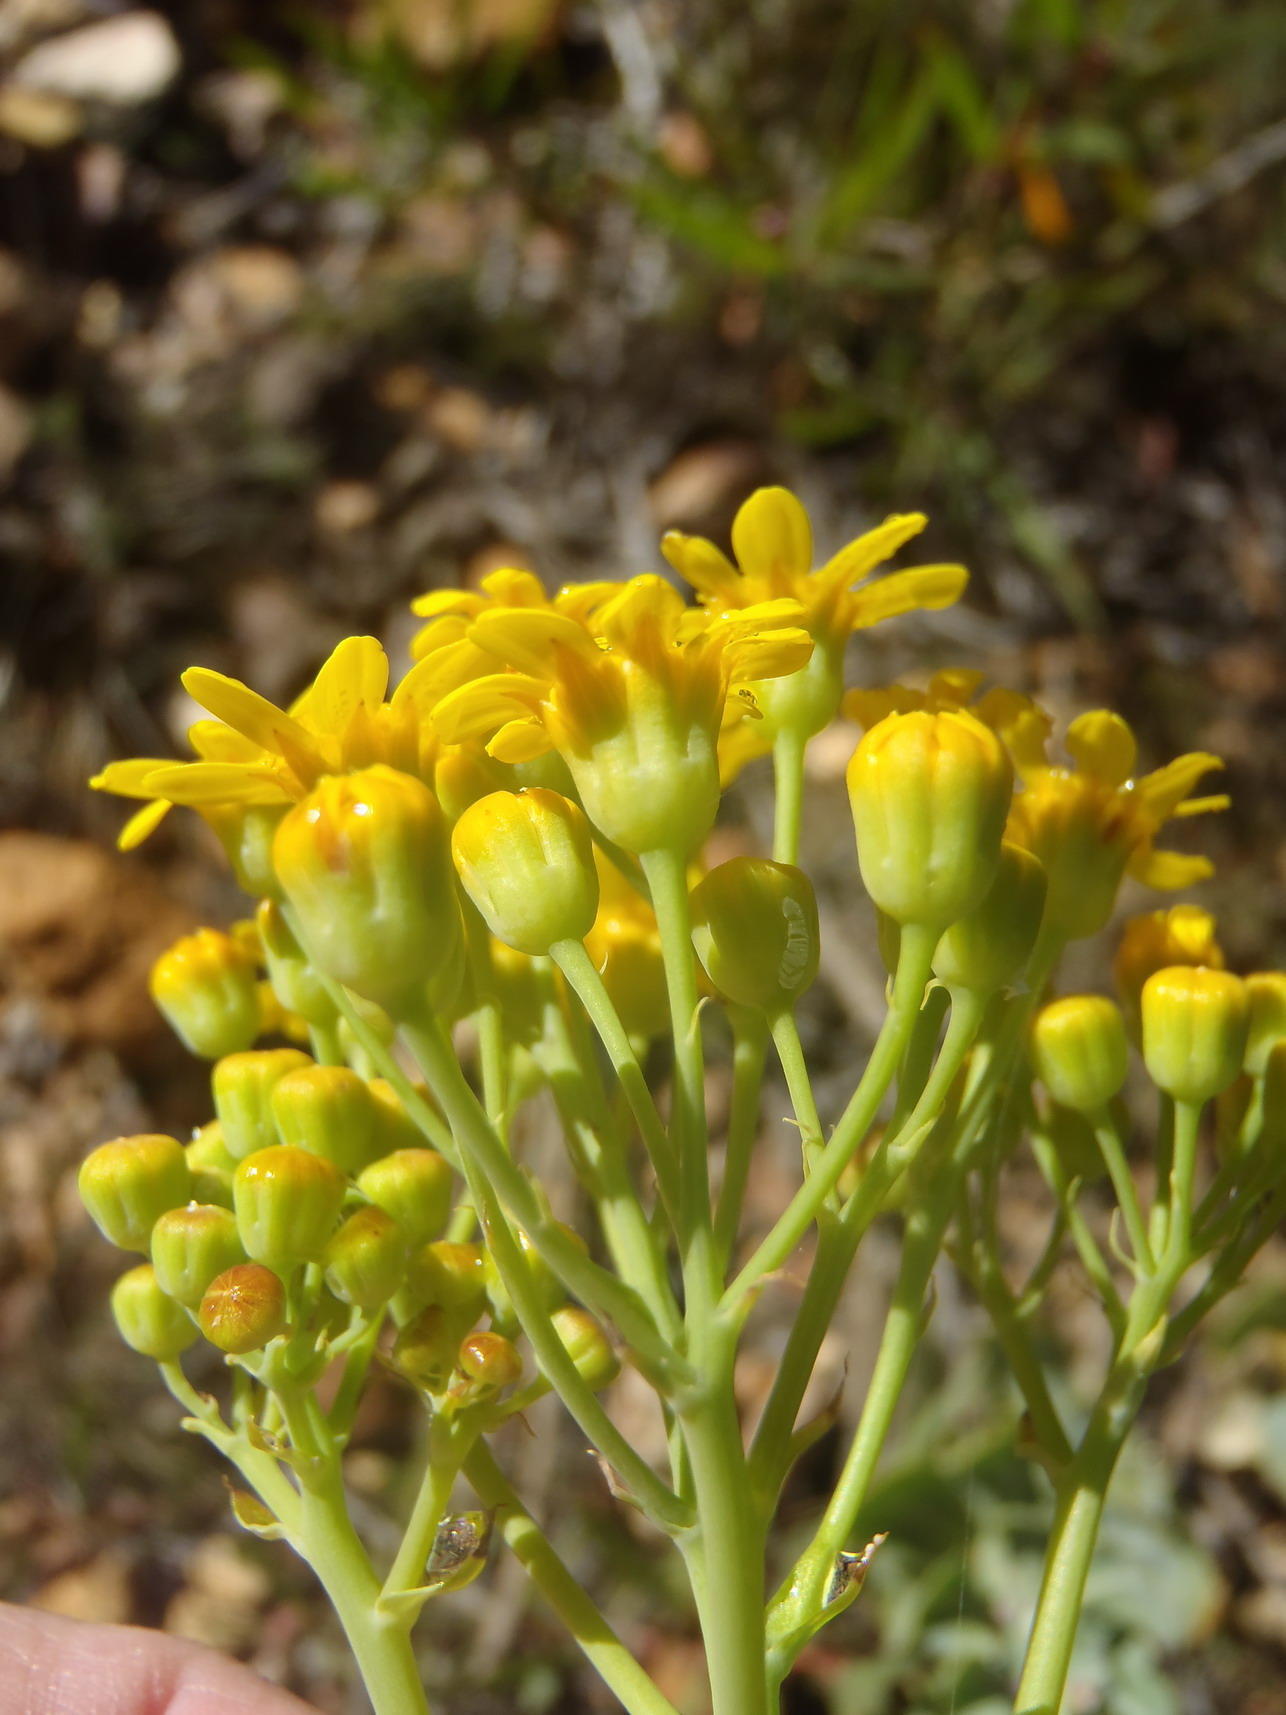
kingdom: Plantae
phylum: Tracheophyta
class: Magnoliopsida
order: Asterales
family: Asteraceae
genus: Othonna
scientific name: Othonna parviflora
